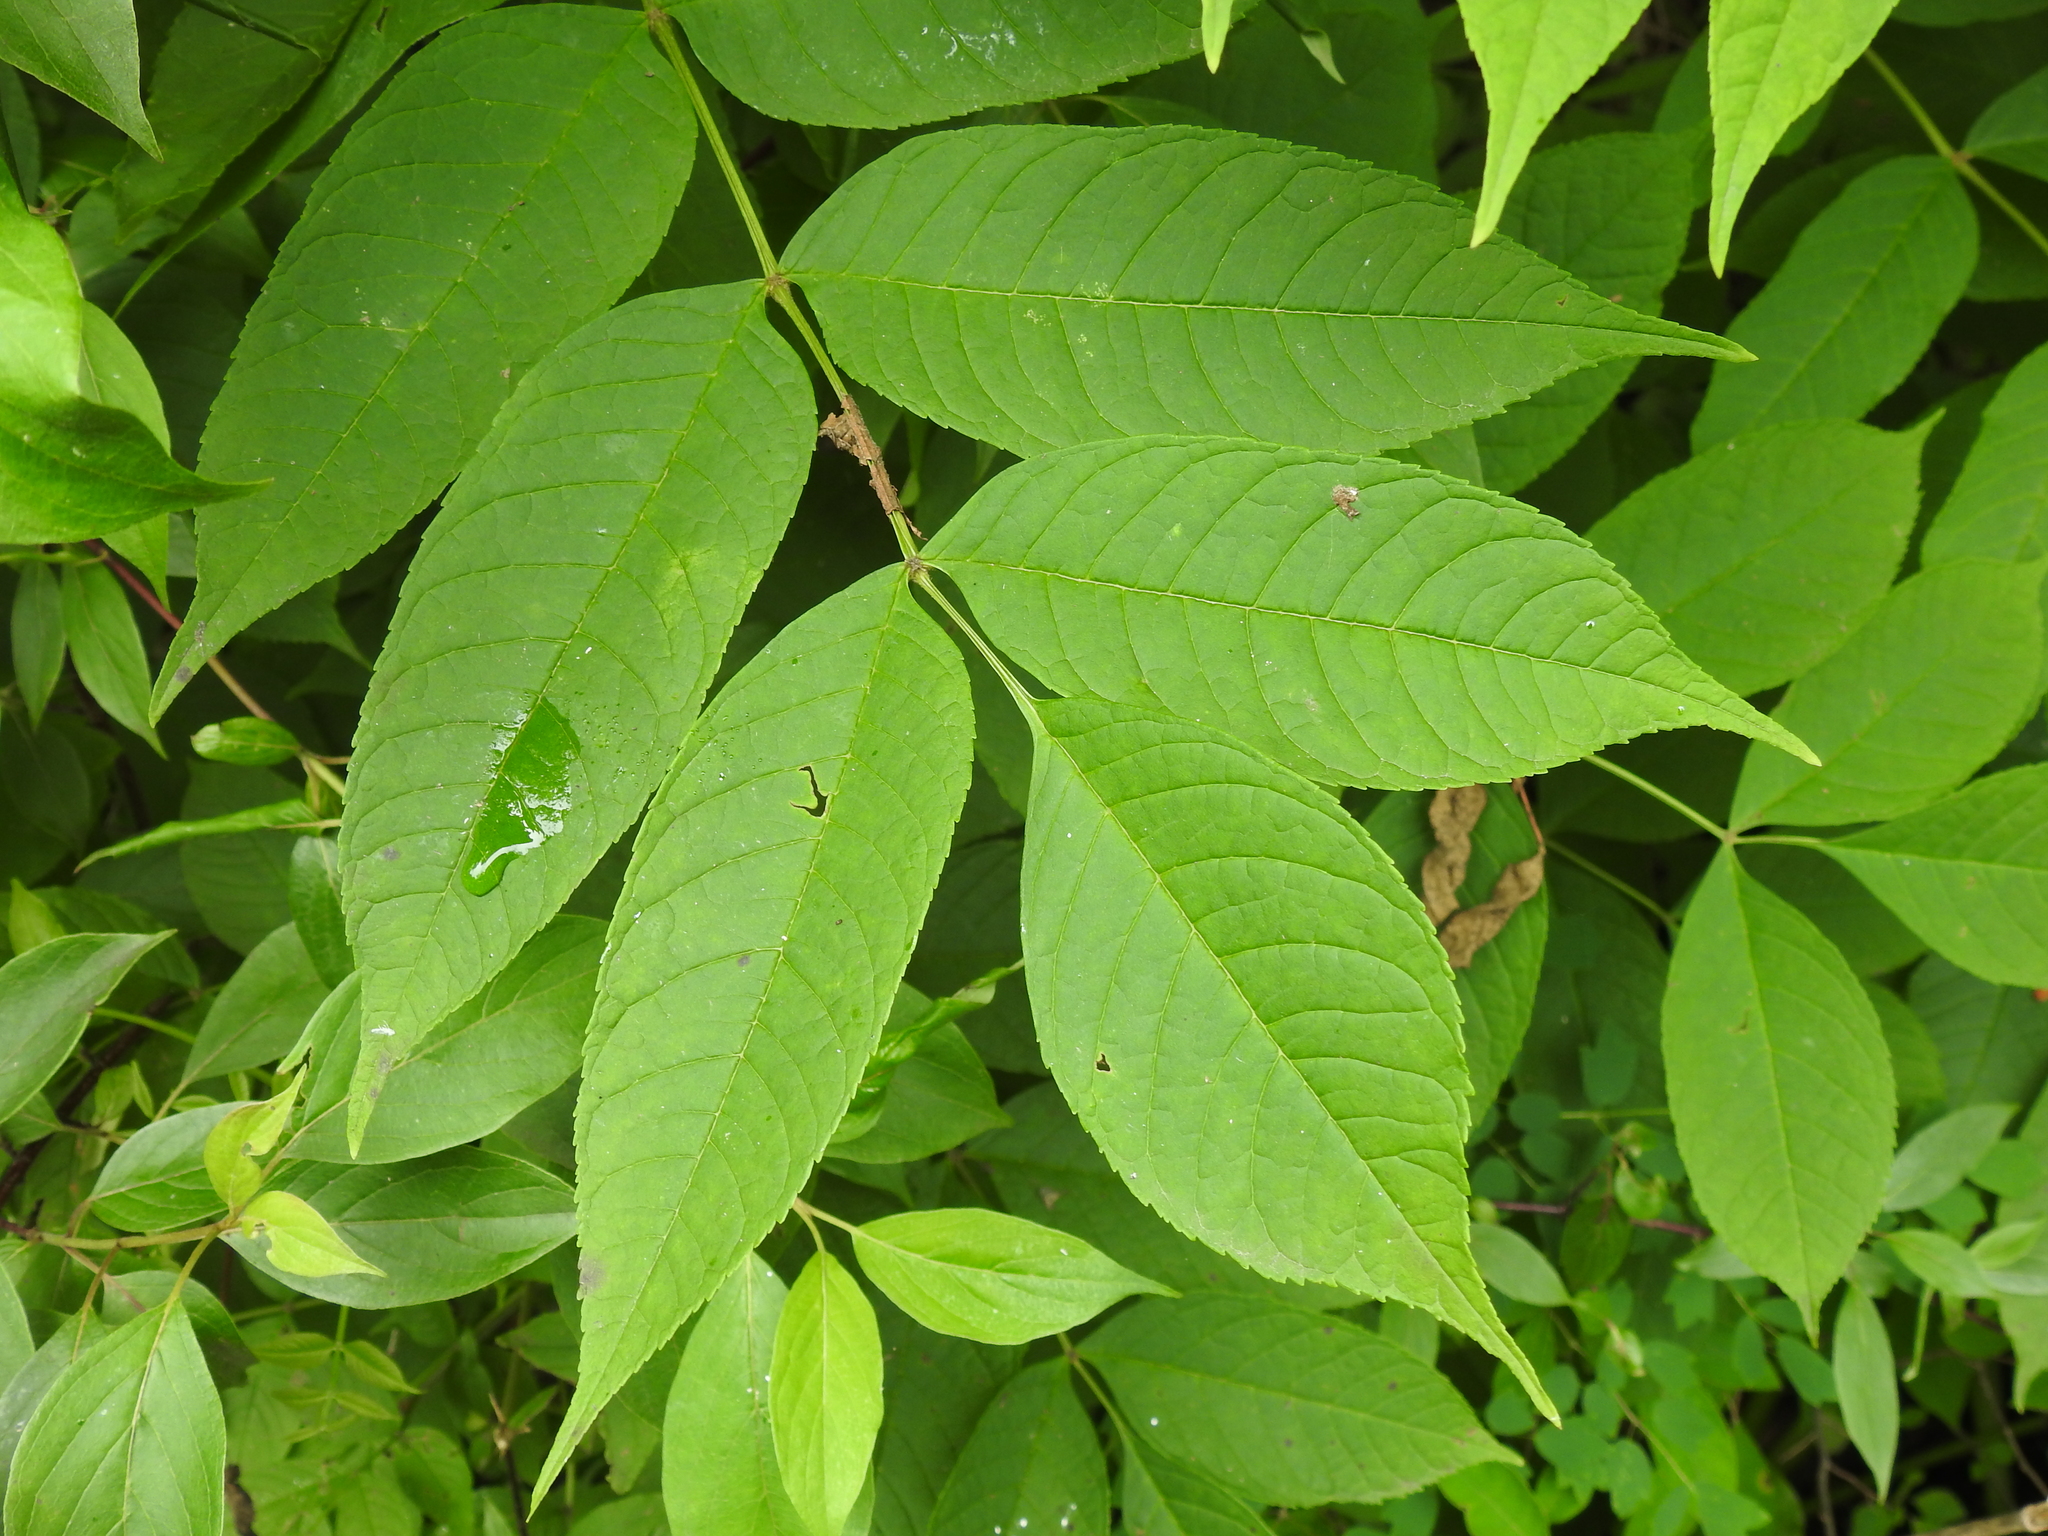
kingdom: Plantae
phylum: Tracheophyta
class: Magnoliopsida
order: Lamiales
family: Oleaceae
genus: Fraxinus
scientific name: Fraxinus nigra
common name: Black ash
